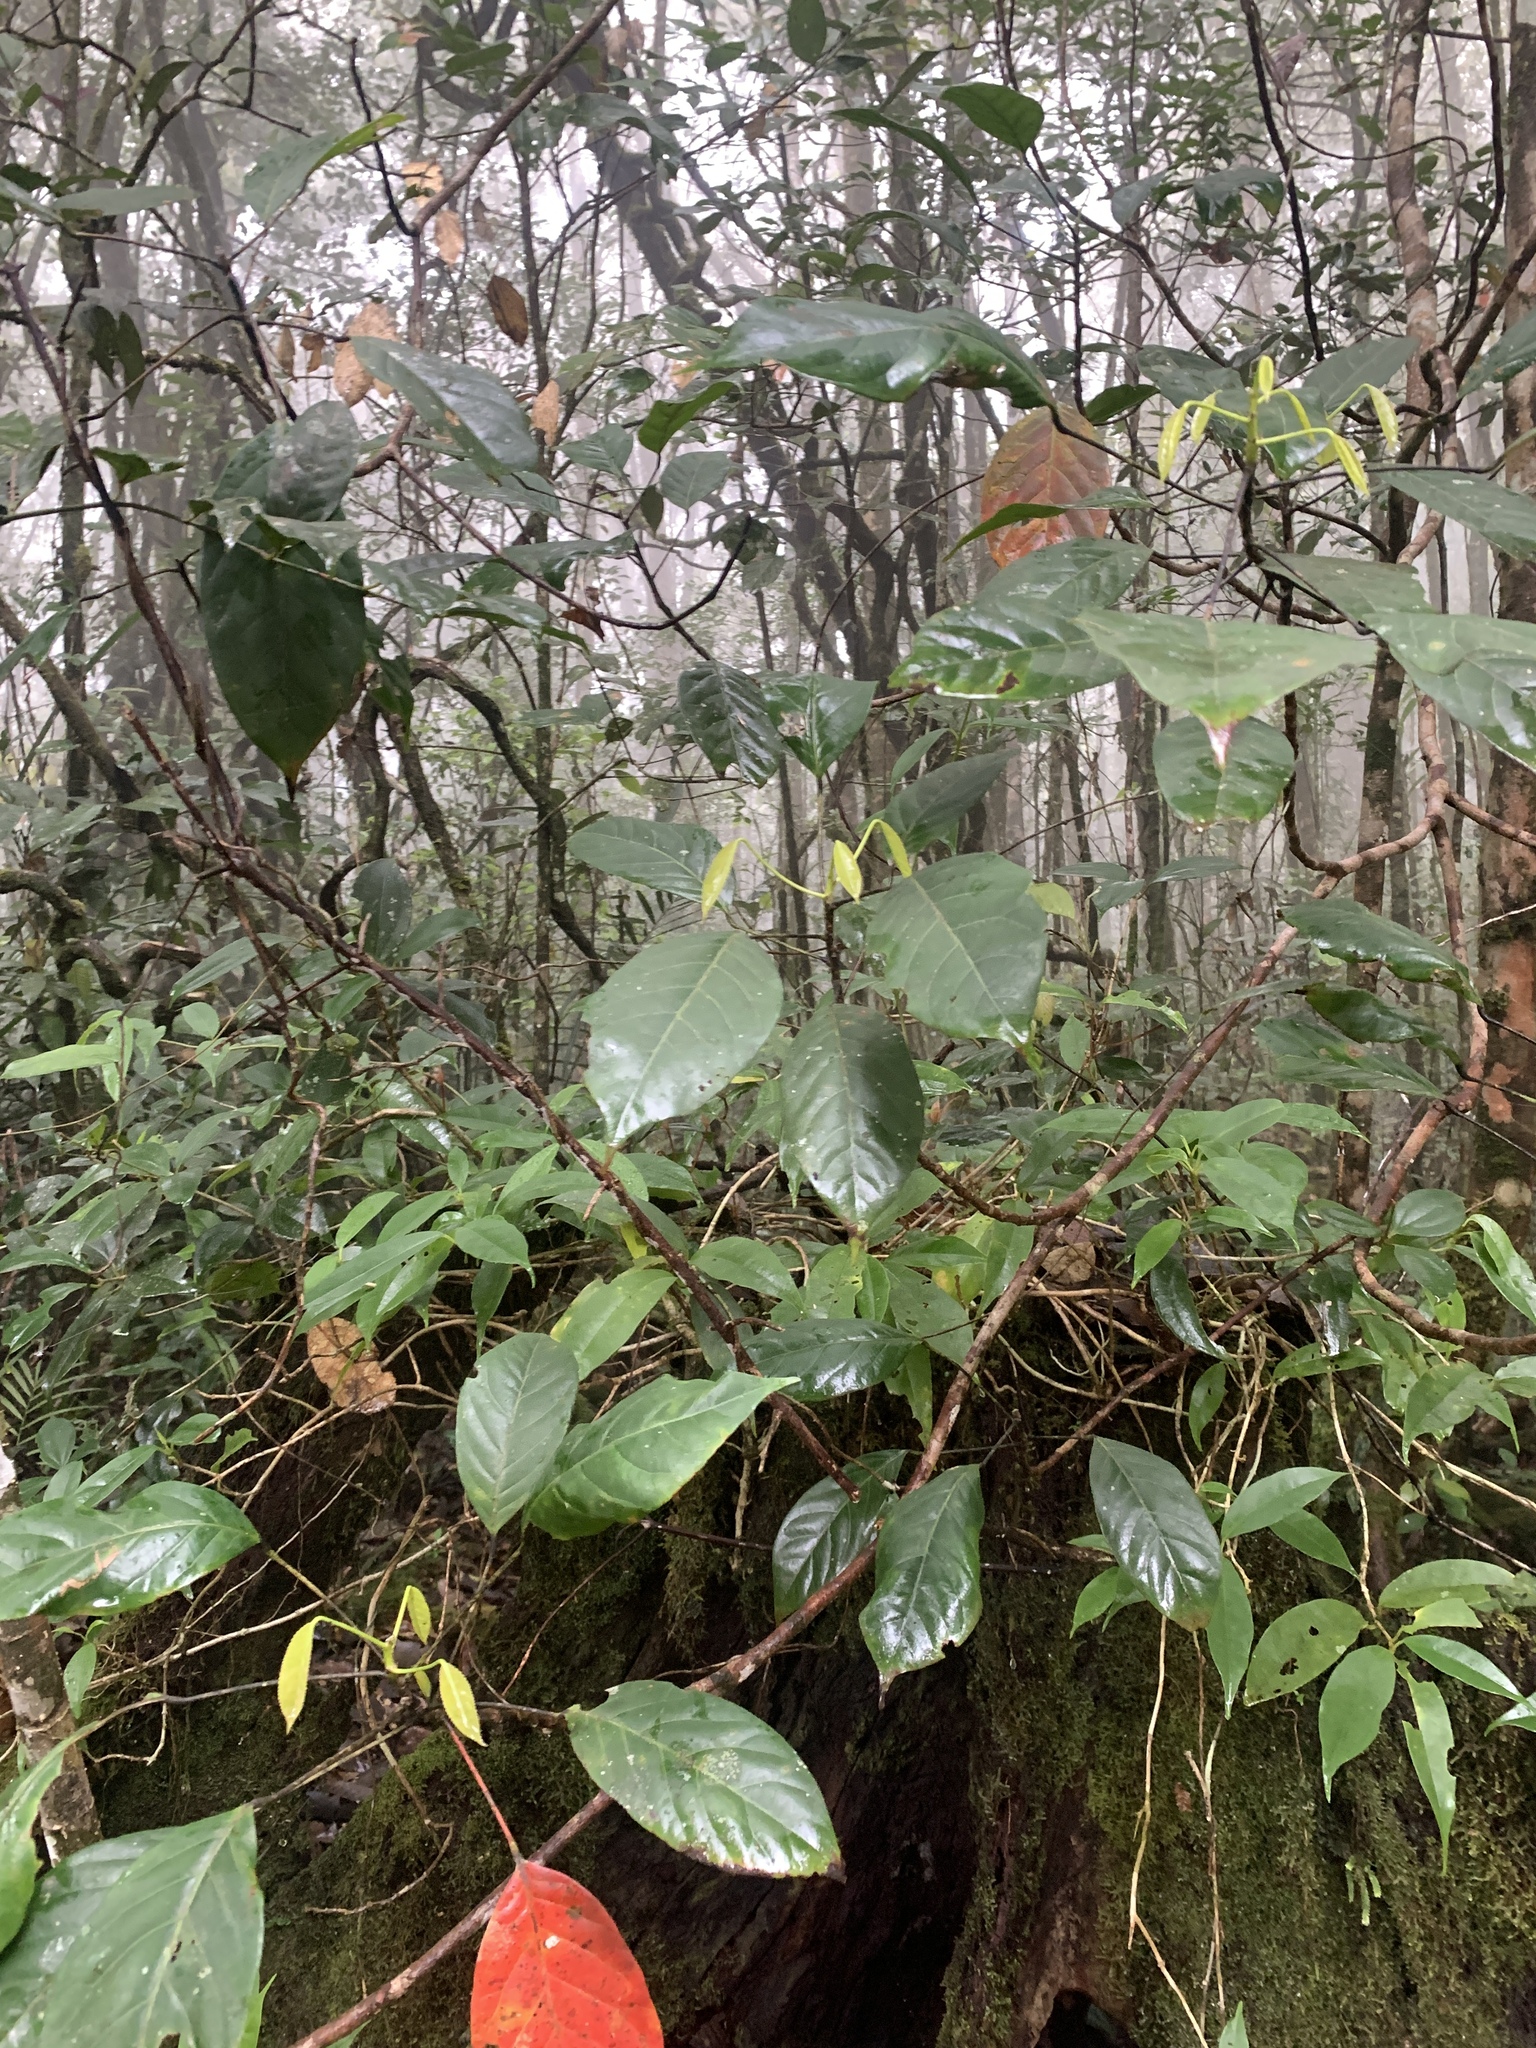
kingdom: Plantae
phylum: Tracheophyta
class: Magnoliopsida
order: Oxalidales
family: Elaeocarpaceae
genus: Elaeocarpus
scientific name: Elaeocarpus polystachyus
